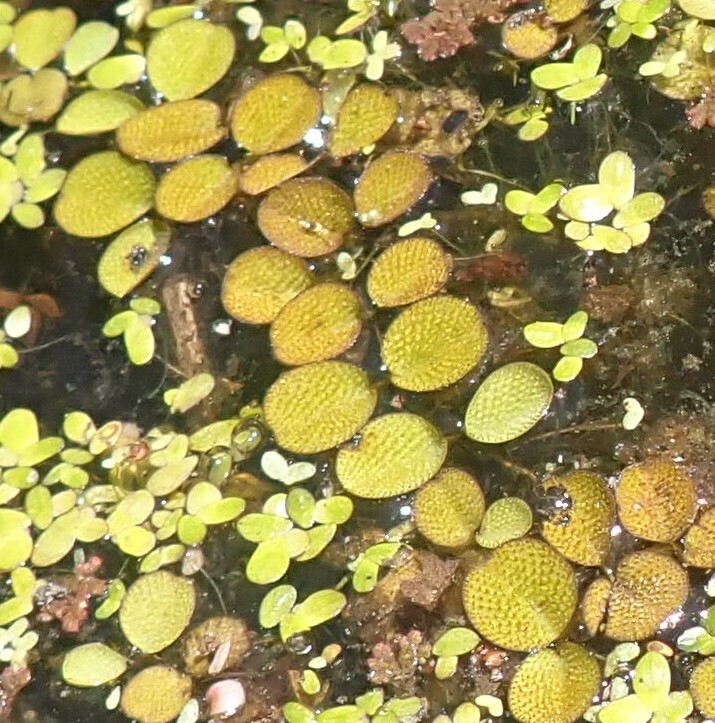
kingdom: Plantae
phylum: Tracheophyta
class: Polypodiopsida
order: Salviniales
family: Salviniaceae
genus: Salvinia
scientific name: Salvinia minima
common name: Water spangles
